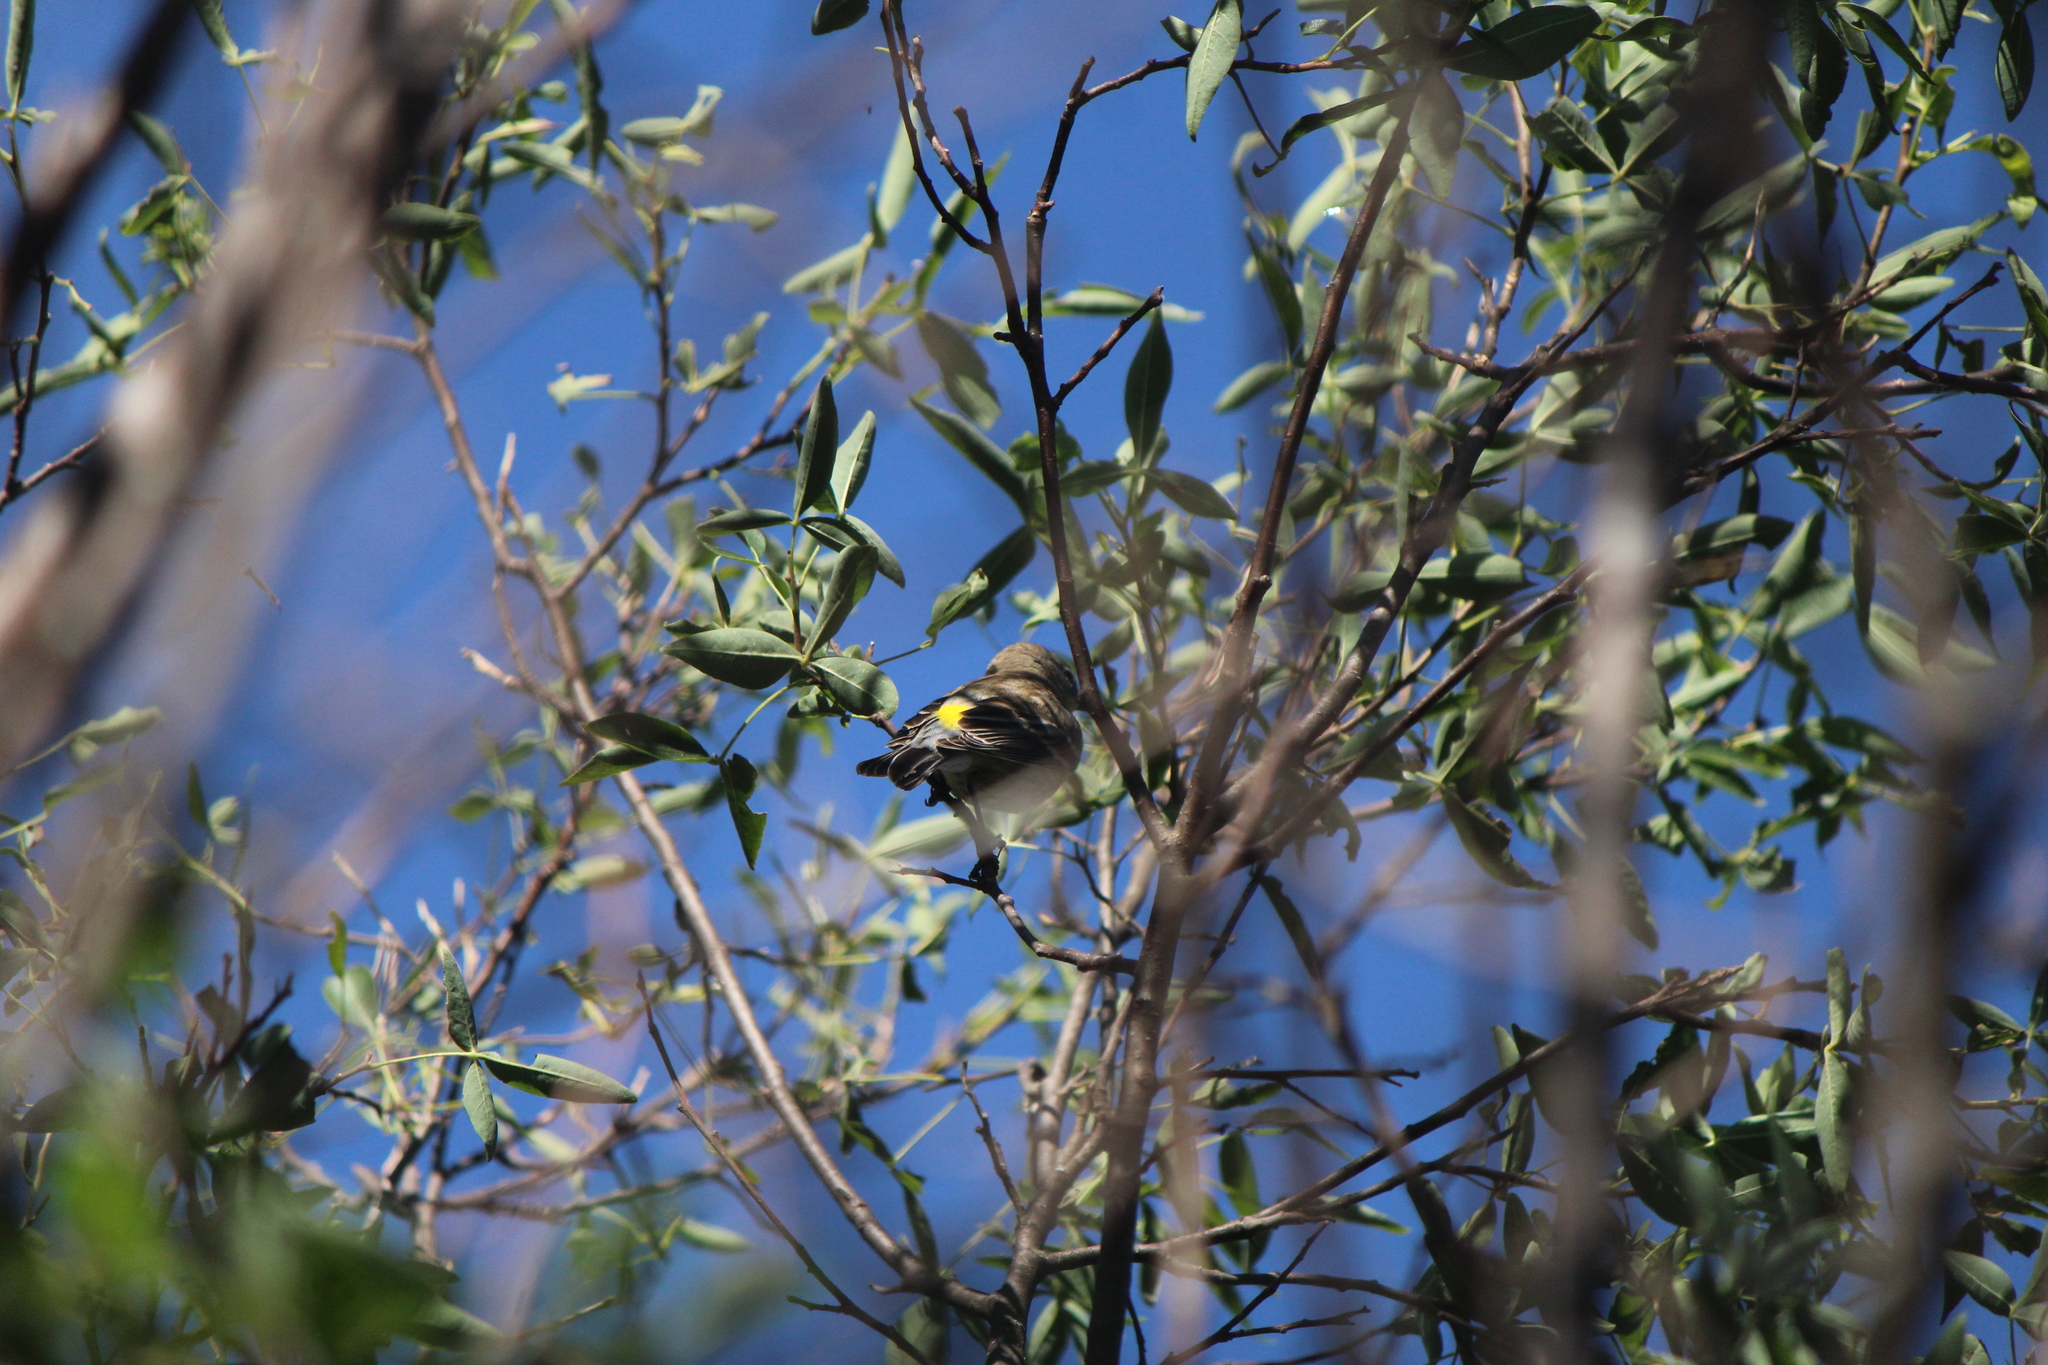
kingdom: Animalia
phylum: Chordata
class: Aves
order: Passeriformes
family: Parulidae
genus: Setophaga
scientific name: Setophaga coronata
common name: Myrtle warbler
